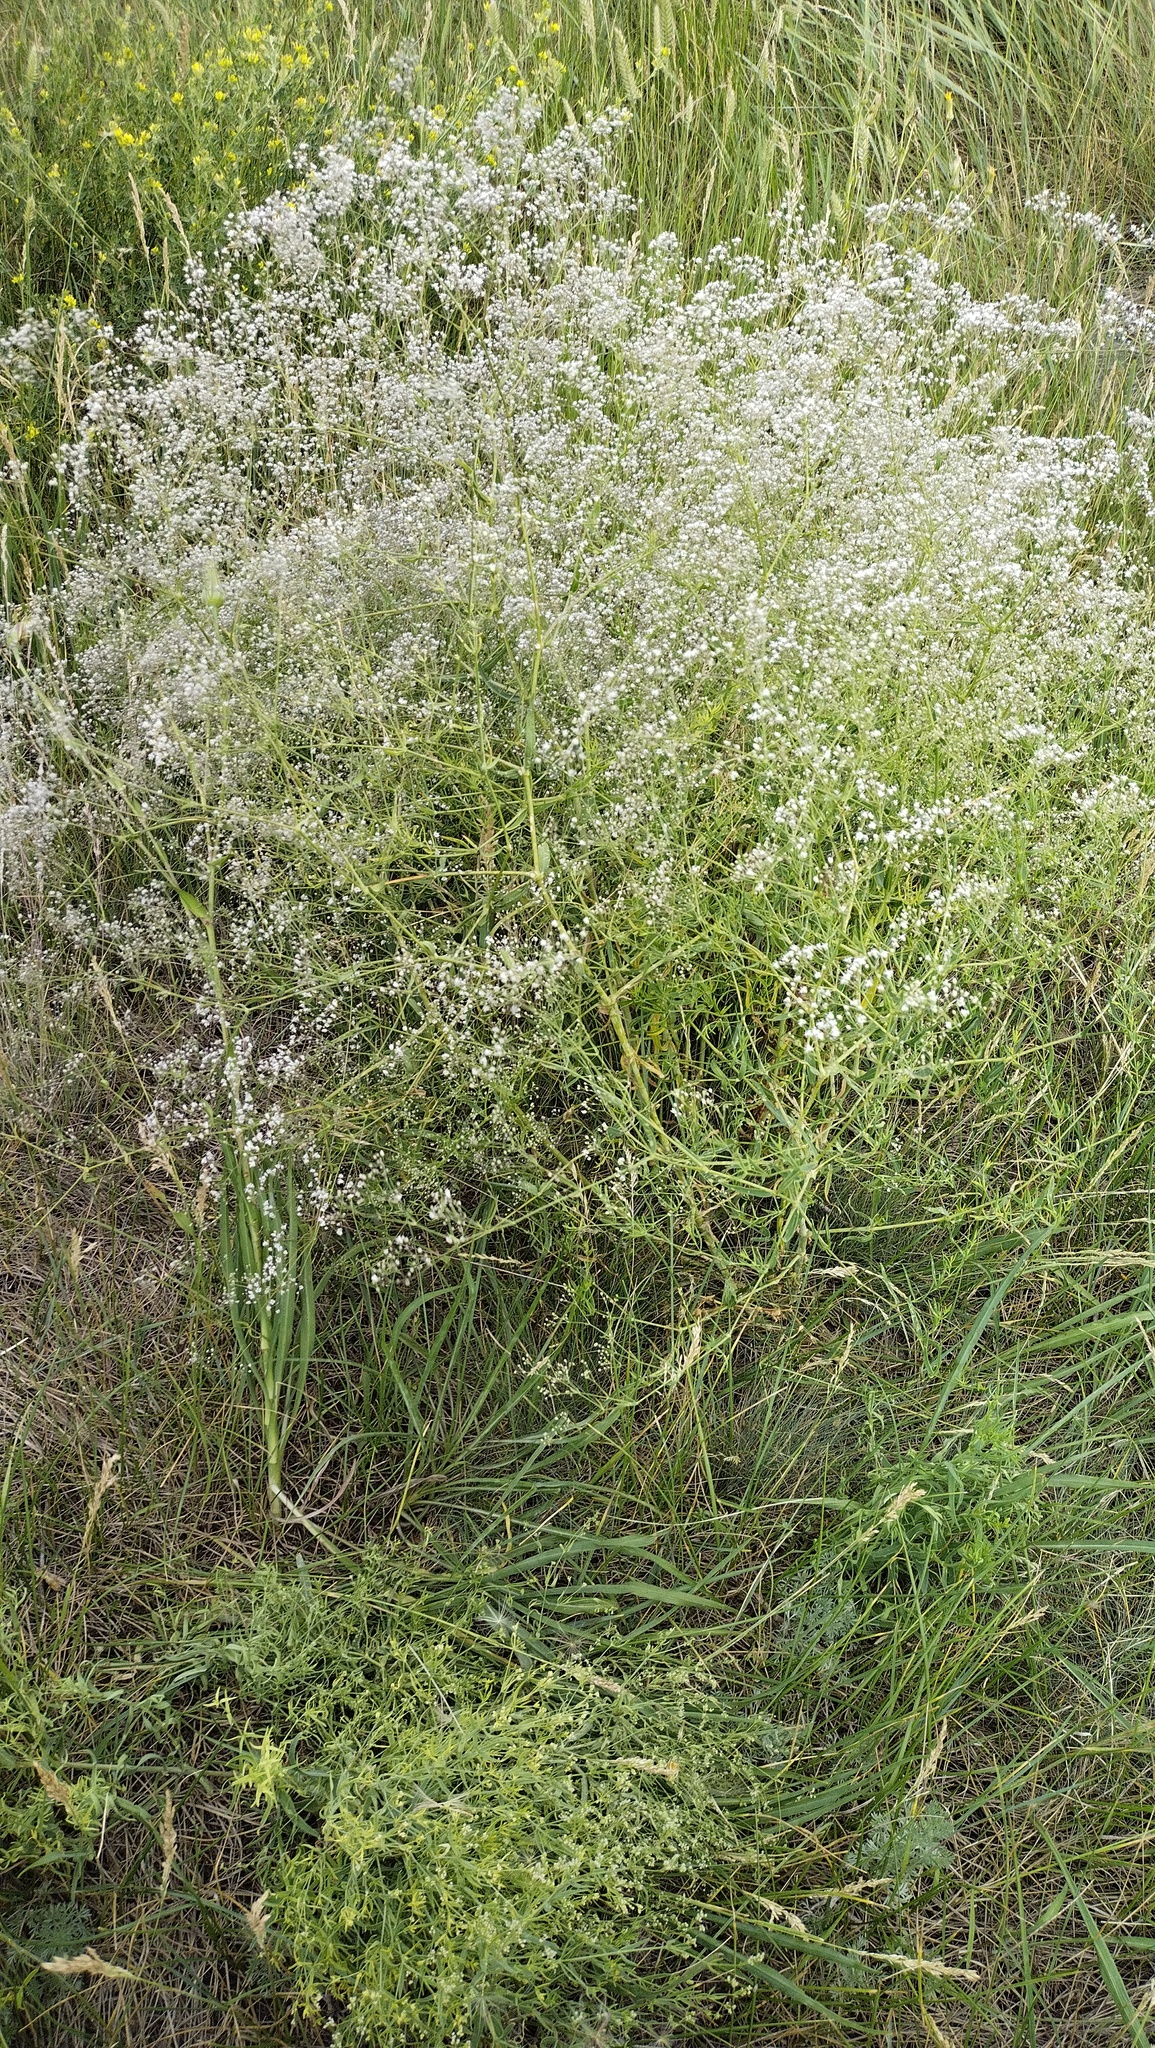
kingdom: Plantae
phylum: Tracheophyta
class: Magnoliopsida
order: Caryophyllales
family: Caryophyllaceae
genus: Gypsophila
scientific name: Gypsophila paniculata
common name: Baby's-breath
